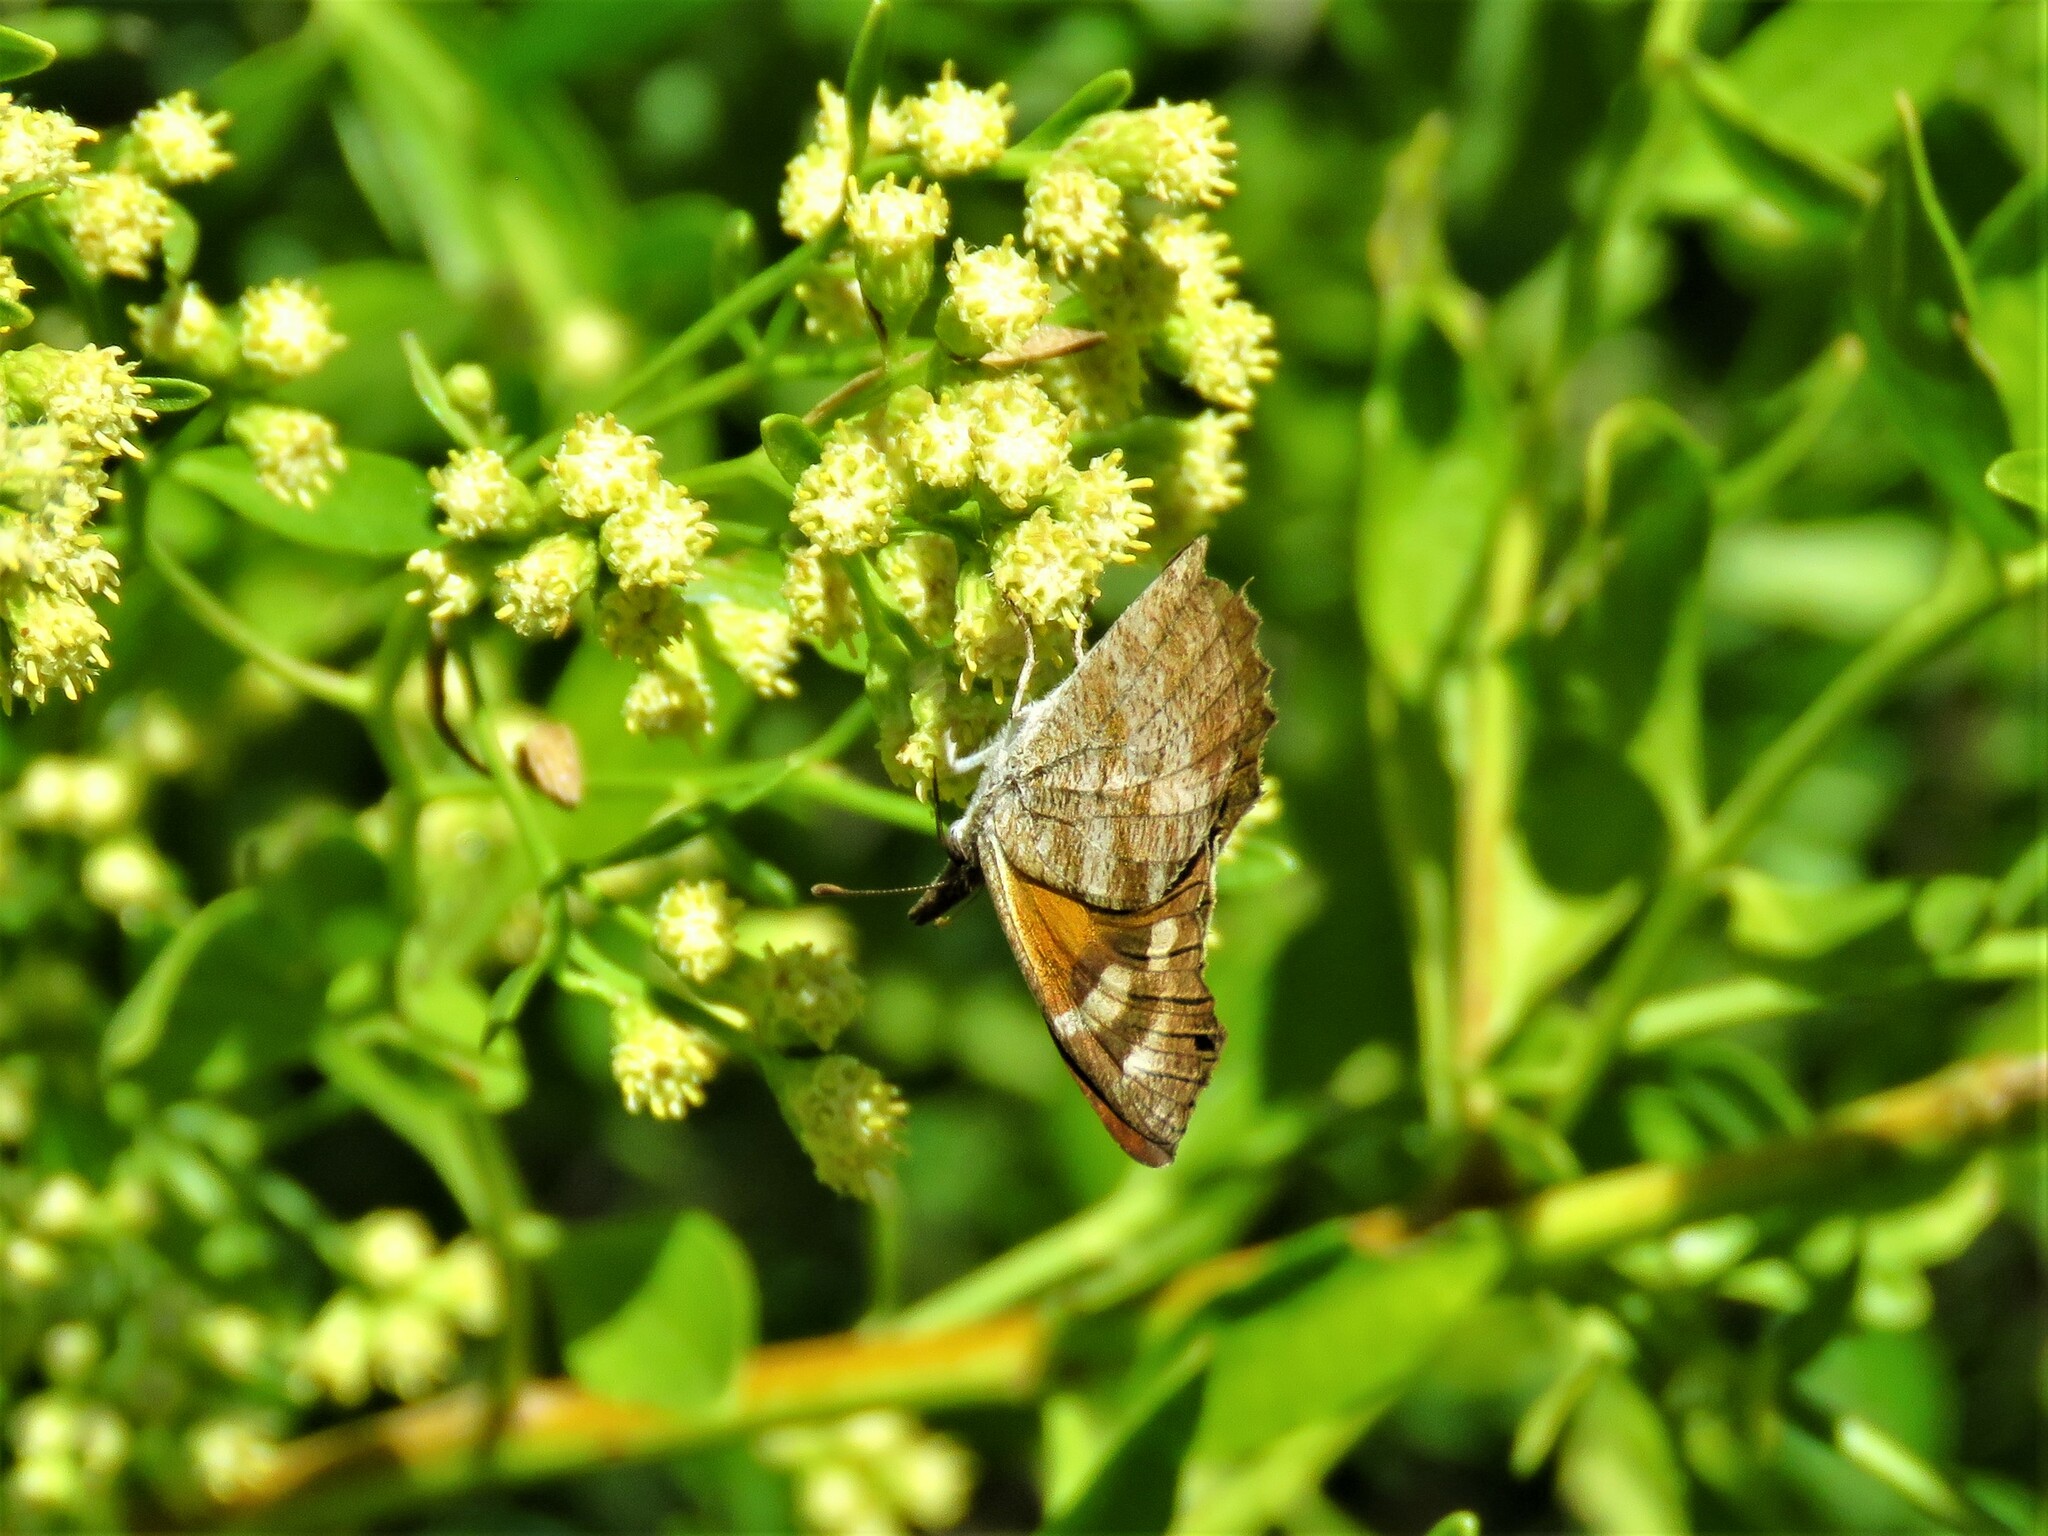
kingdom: Animalia
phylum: Arthropoda
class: Insecta
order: Lepidoptera
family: Nymphalidae
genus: Libytheana
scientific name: Libytheana carinenta
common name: American snout
